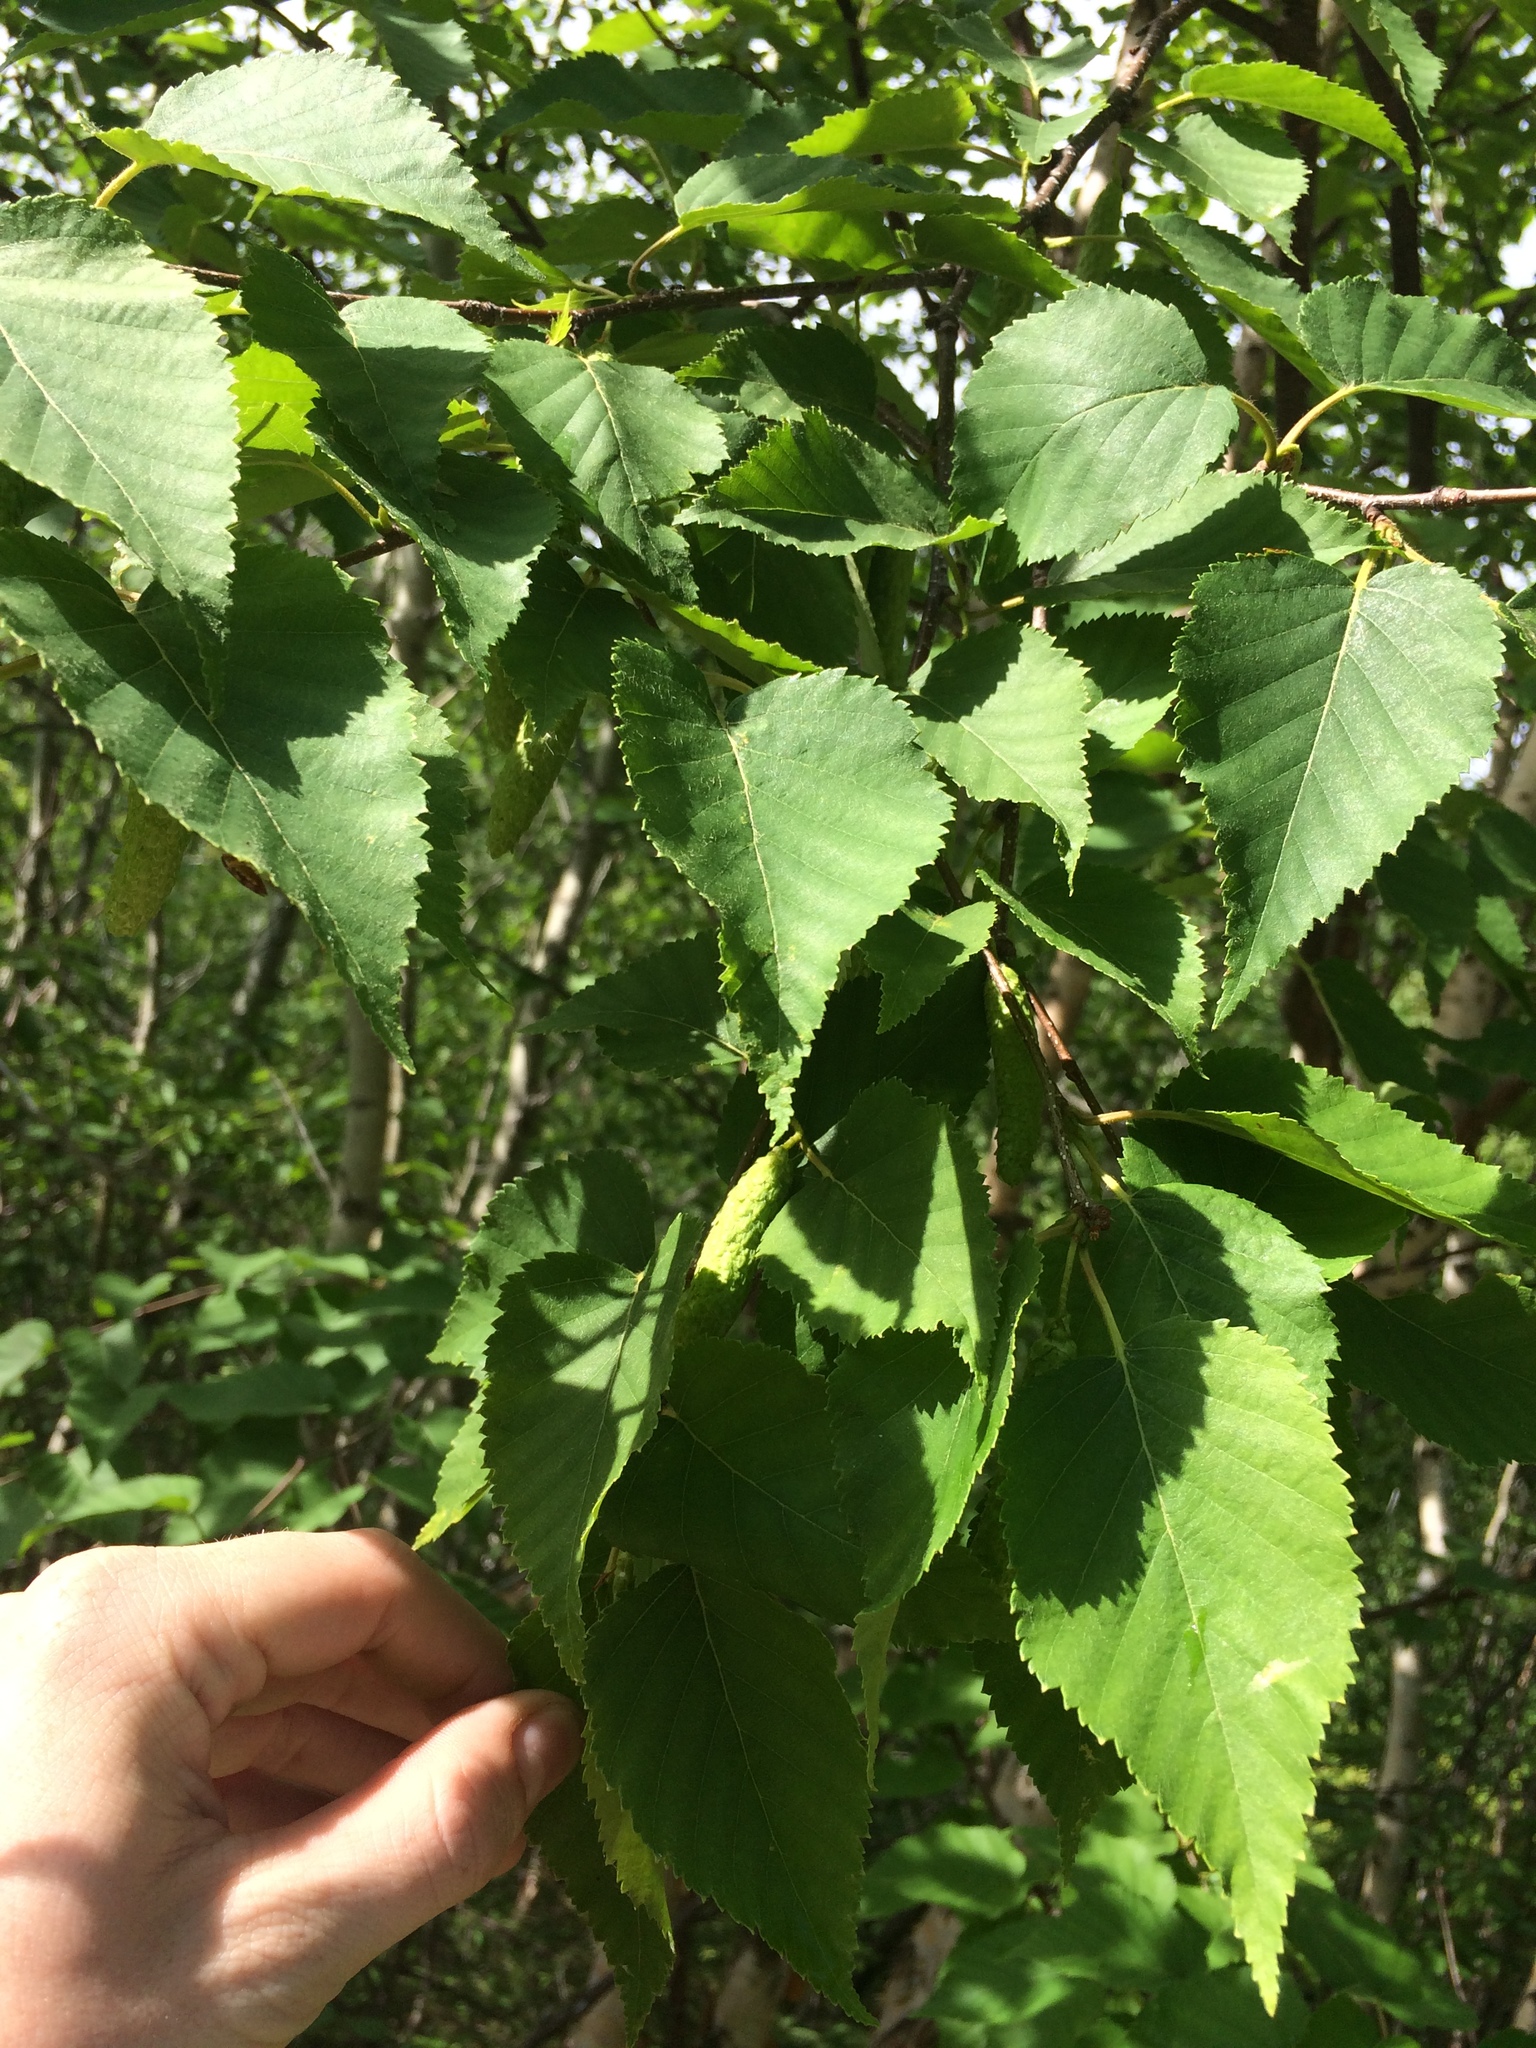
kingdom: Plantae
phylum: Tracheophyta
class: Magnoliopsida
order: Fagales
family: Betulaceae
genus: Betula
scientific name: Betula cordifolia
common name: Mountain white birch
